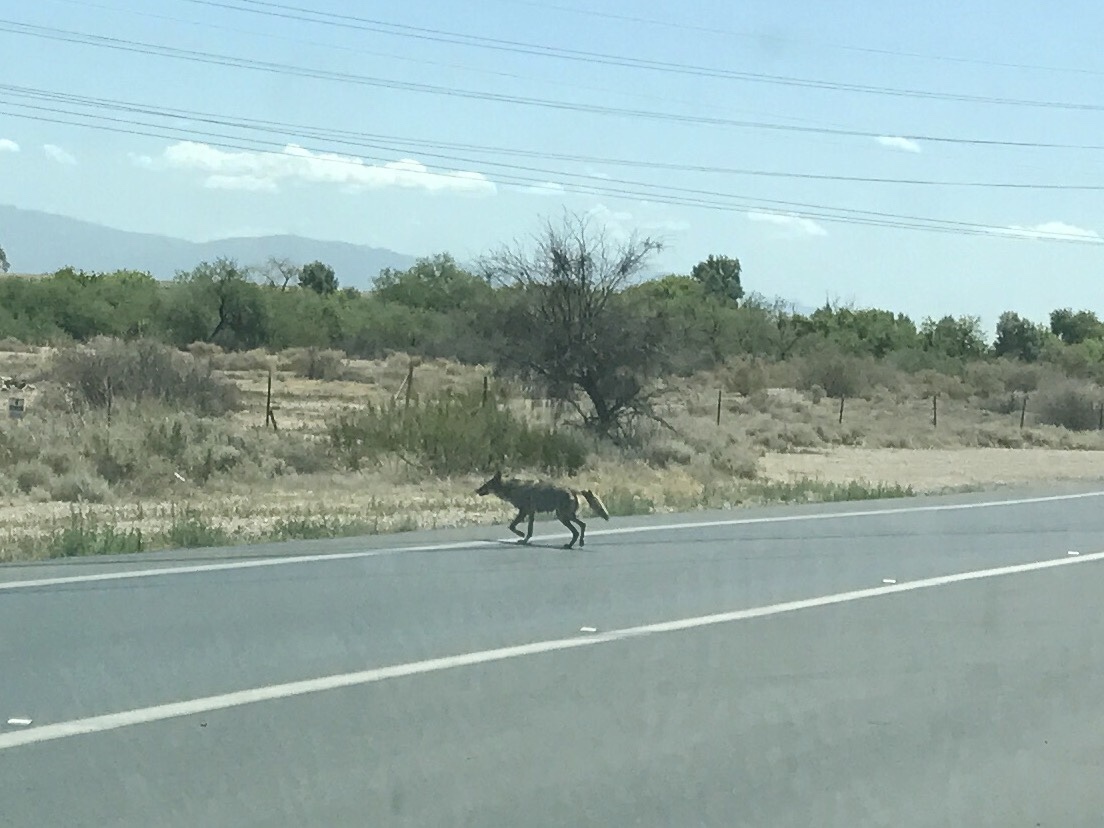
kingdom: Animalia
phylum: Chordata
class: Mammalia
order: Carnivora
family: Canidae
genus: Canis
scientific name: Canis latrans
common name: Coyote
